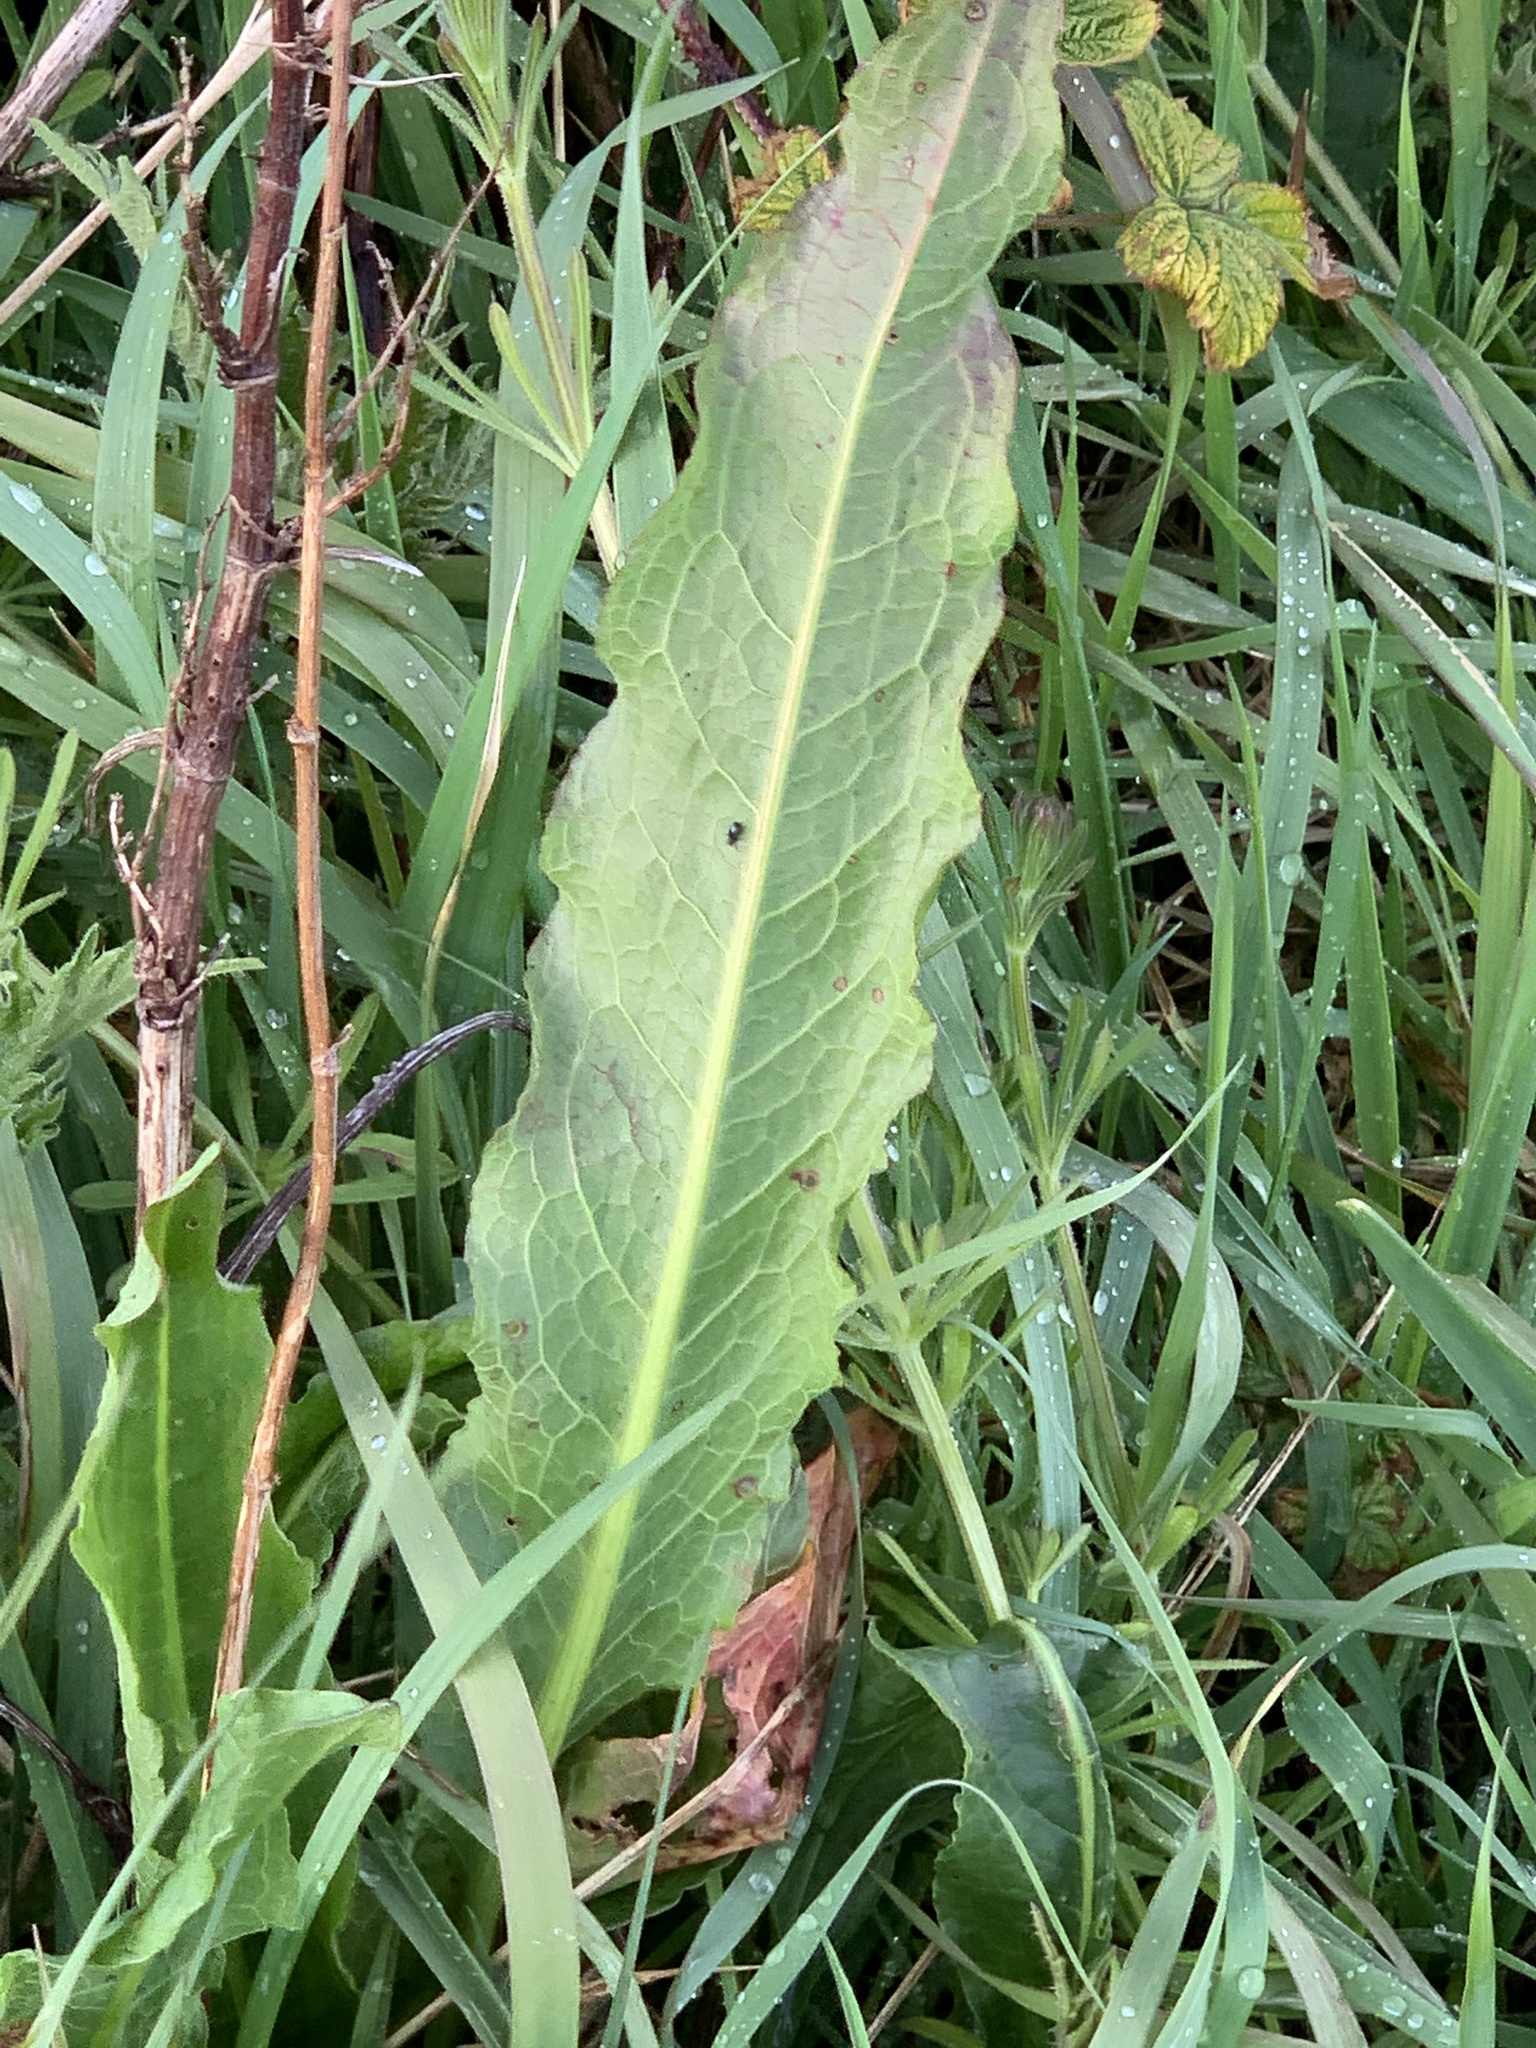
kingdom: Plantae
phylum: Tracheophyta
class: Magnoliopsida
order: Caryophyllales
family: Polygonaceae
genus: Rumex
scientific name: Rumex crispus
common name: Curled dock
